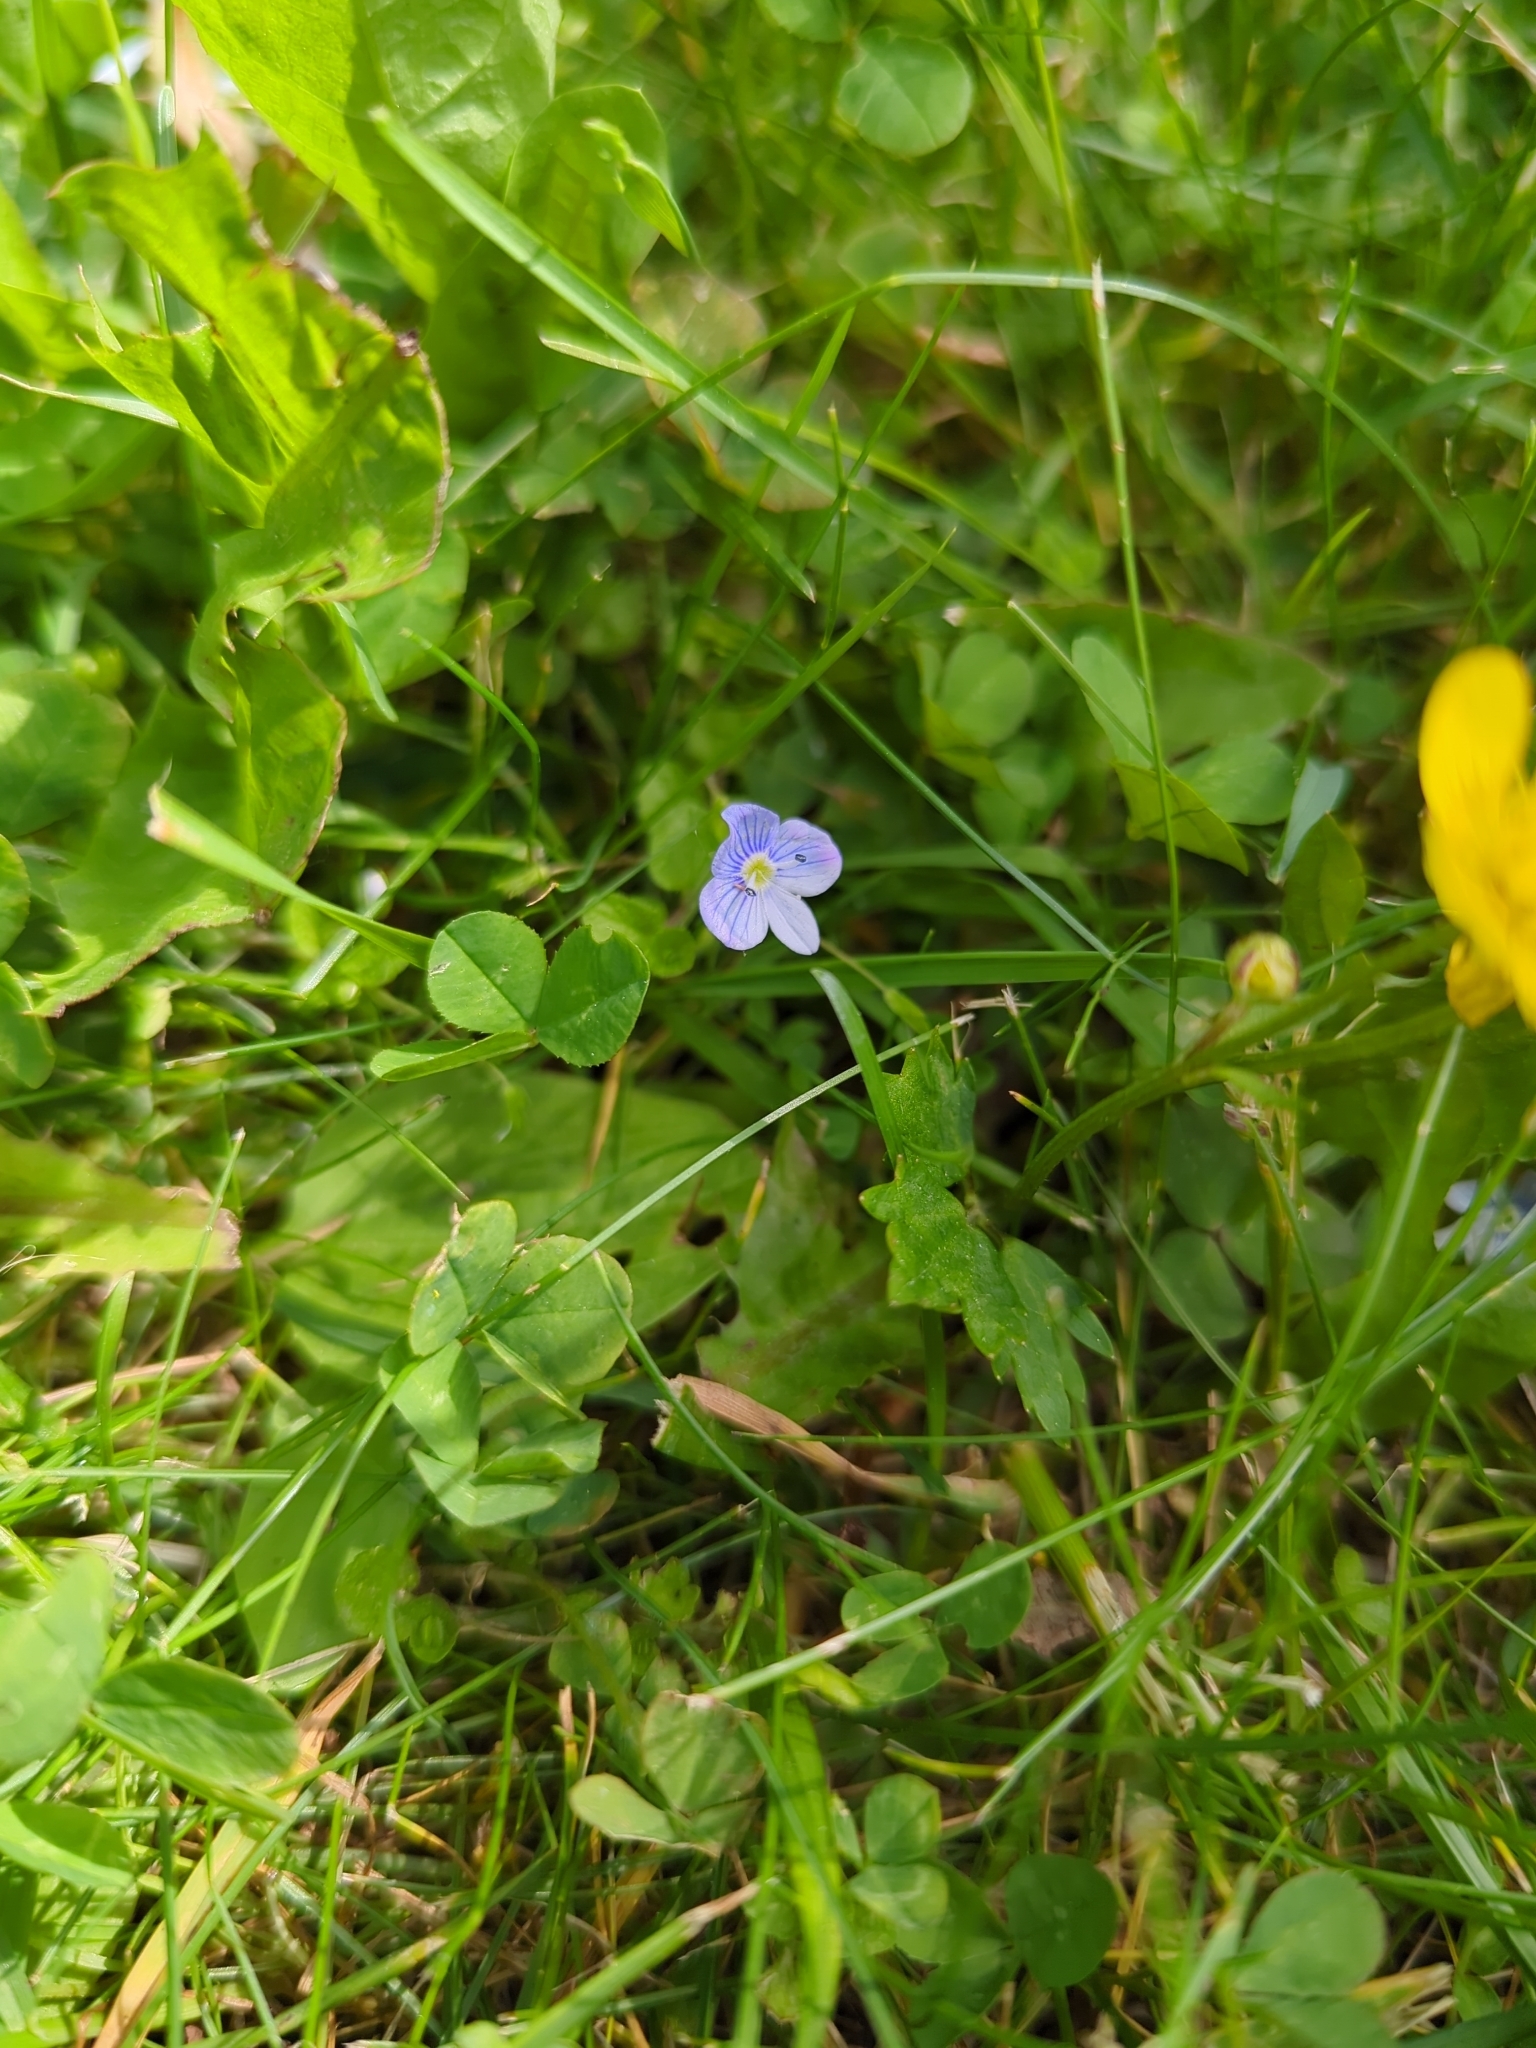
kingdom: Plantae
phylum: Tracheophyta
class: Magnoliopsida
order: Lamiales
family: Plantaginaceae
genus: Veronica
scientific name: Veronica filiformis
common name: Slender speedwell
